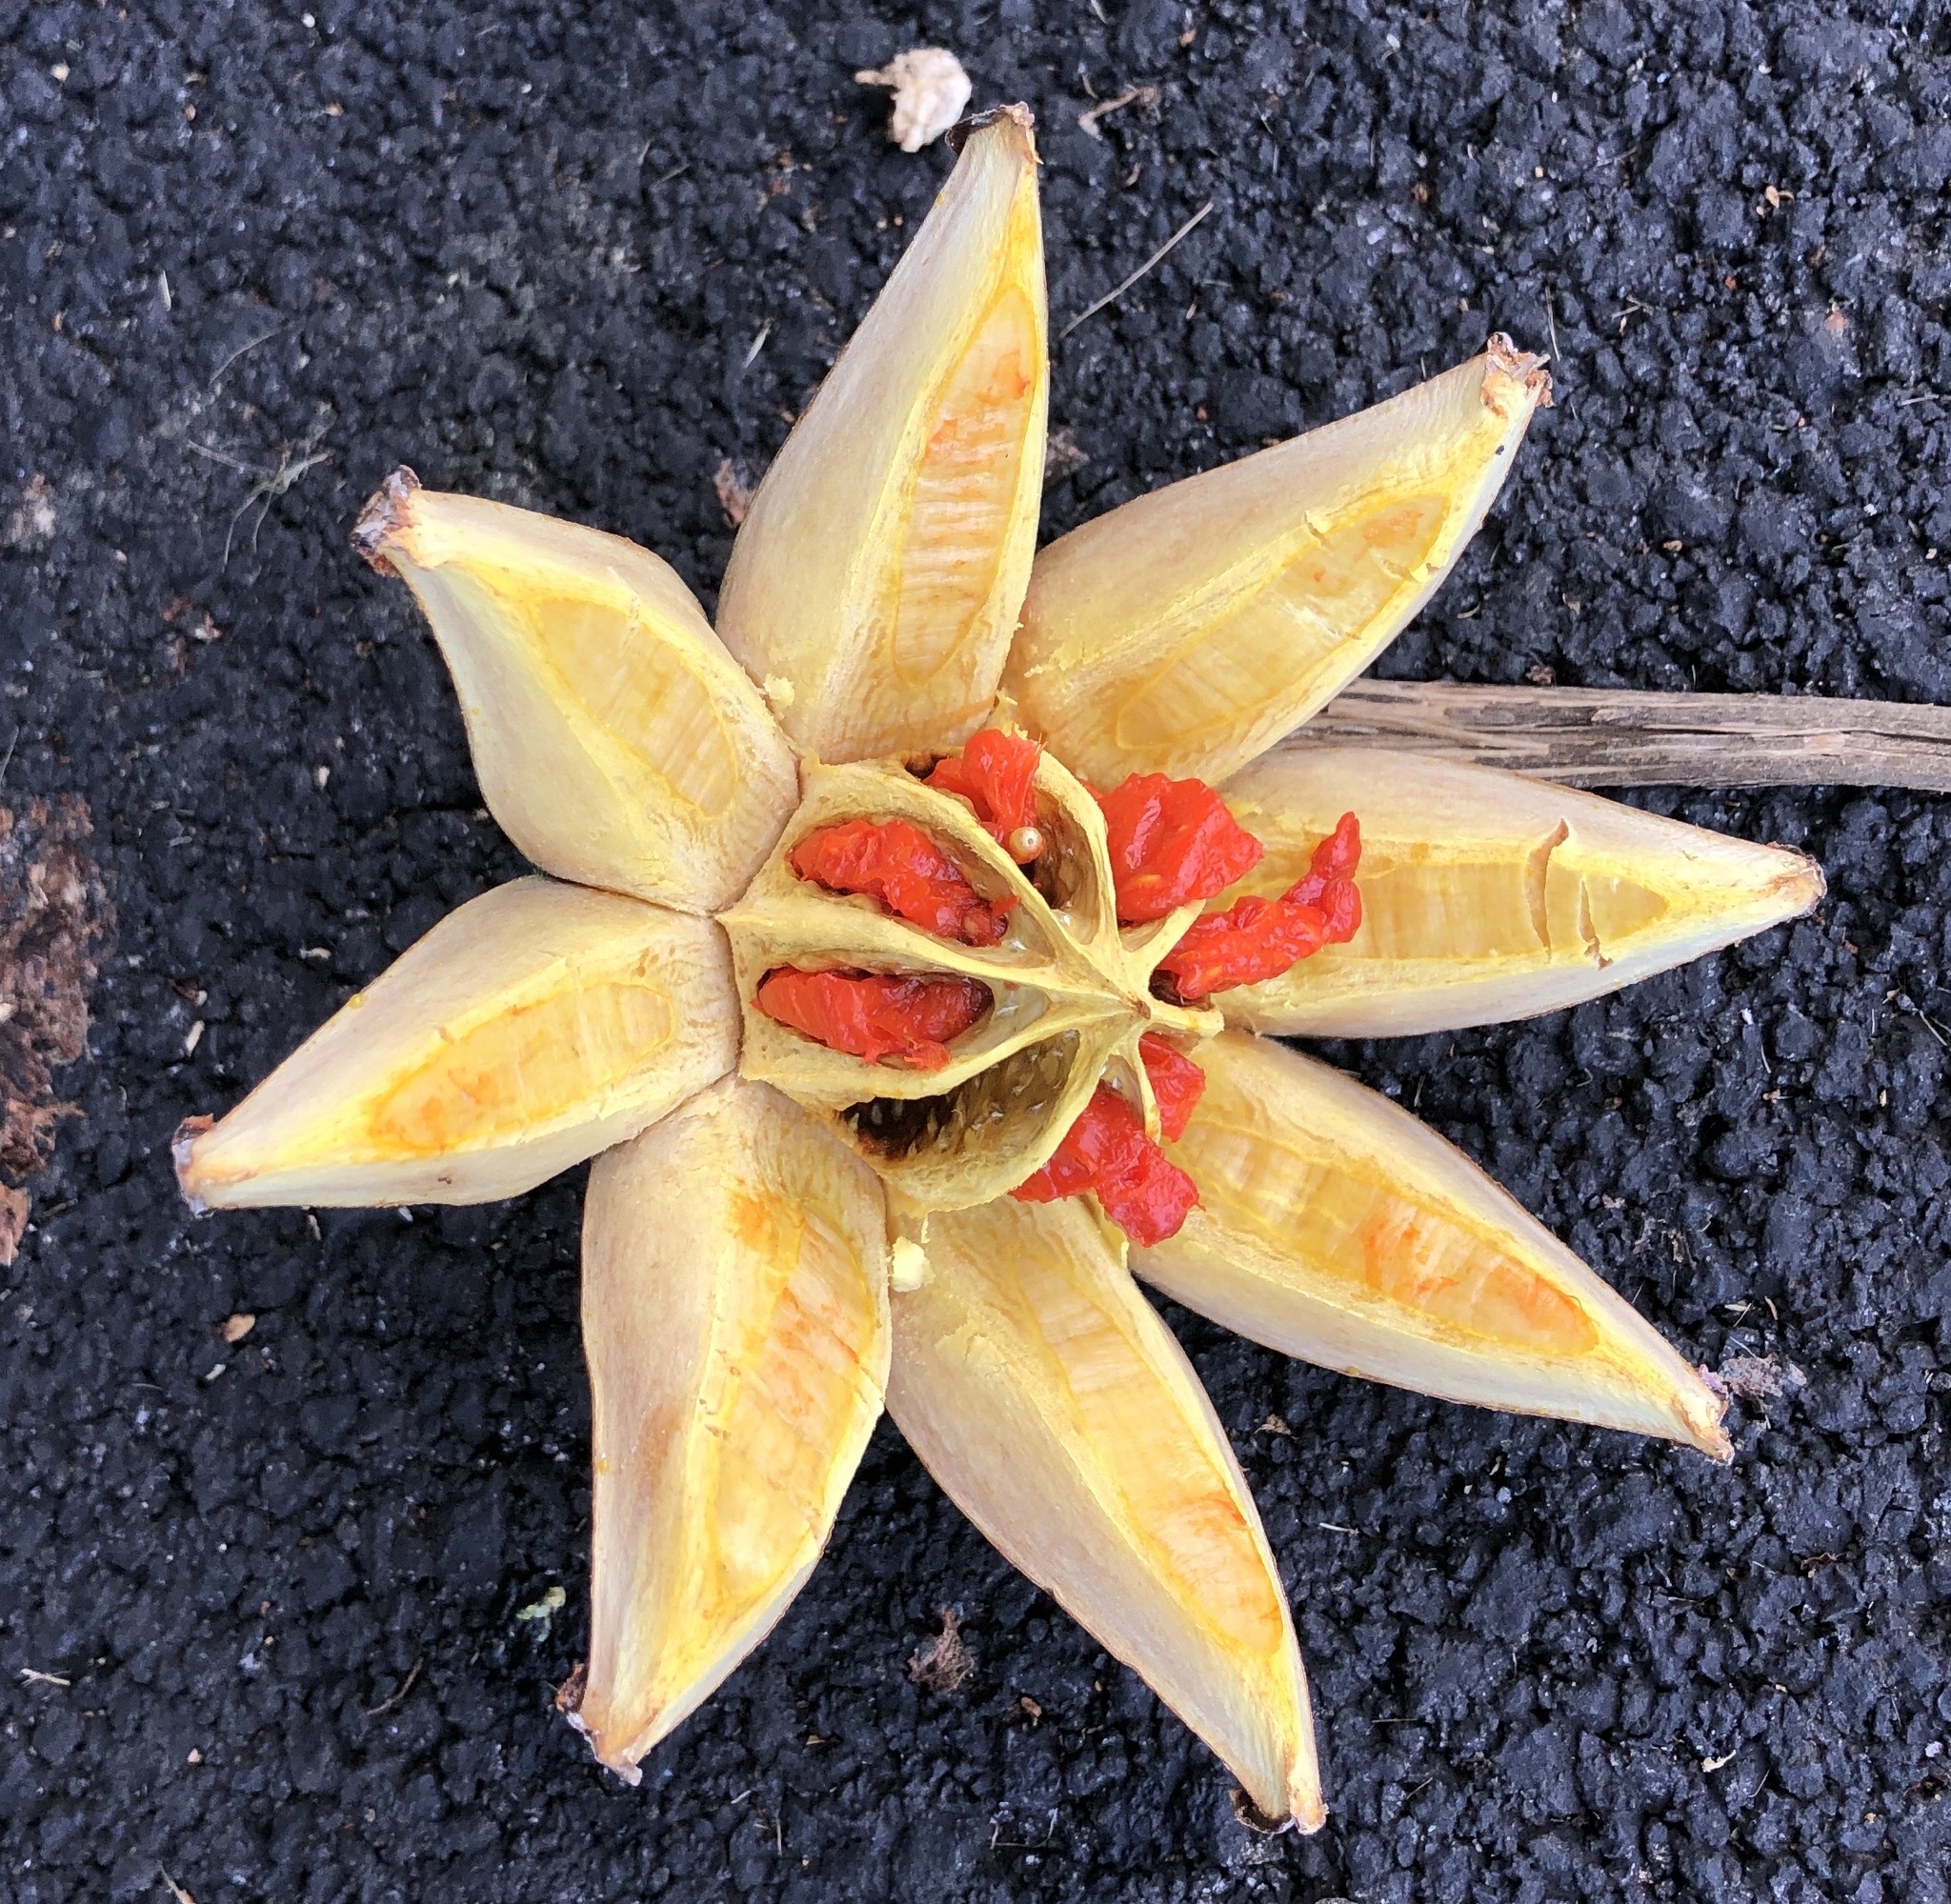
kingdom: Plantae
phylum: Tracheophyta
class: Magnoliopsida
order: Malpighiales
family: Clusiaceae
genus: Clusia
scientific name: Clusia rosea
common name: Scotch attorney
